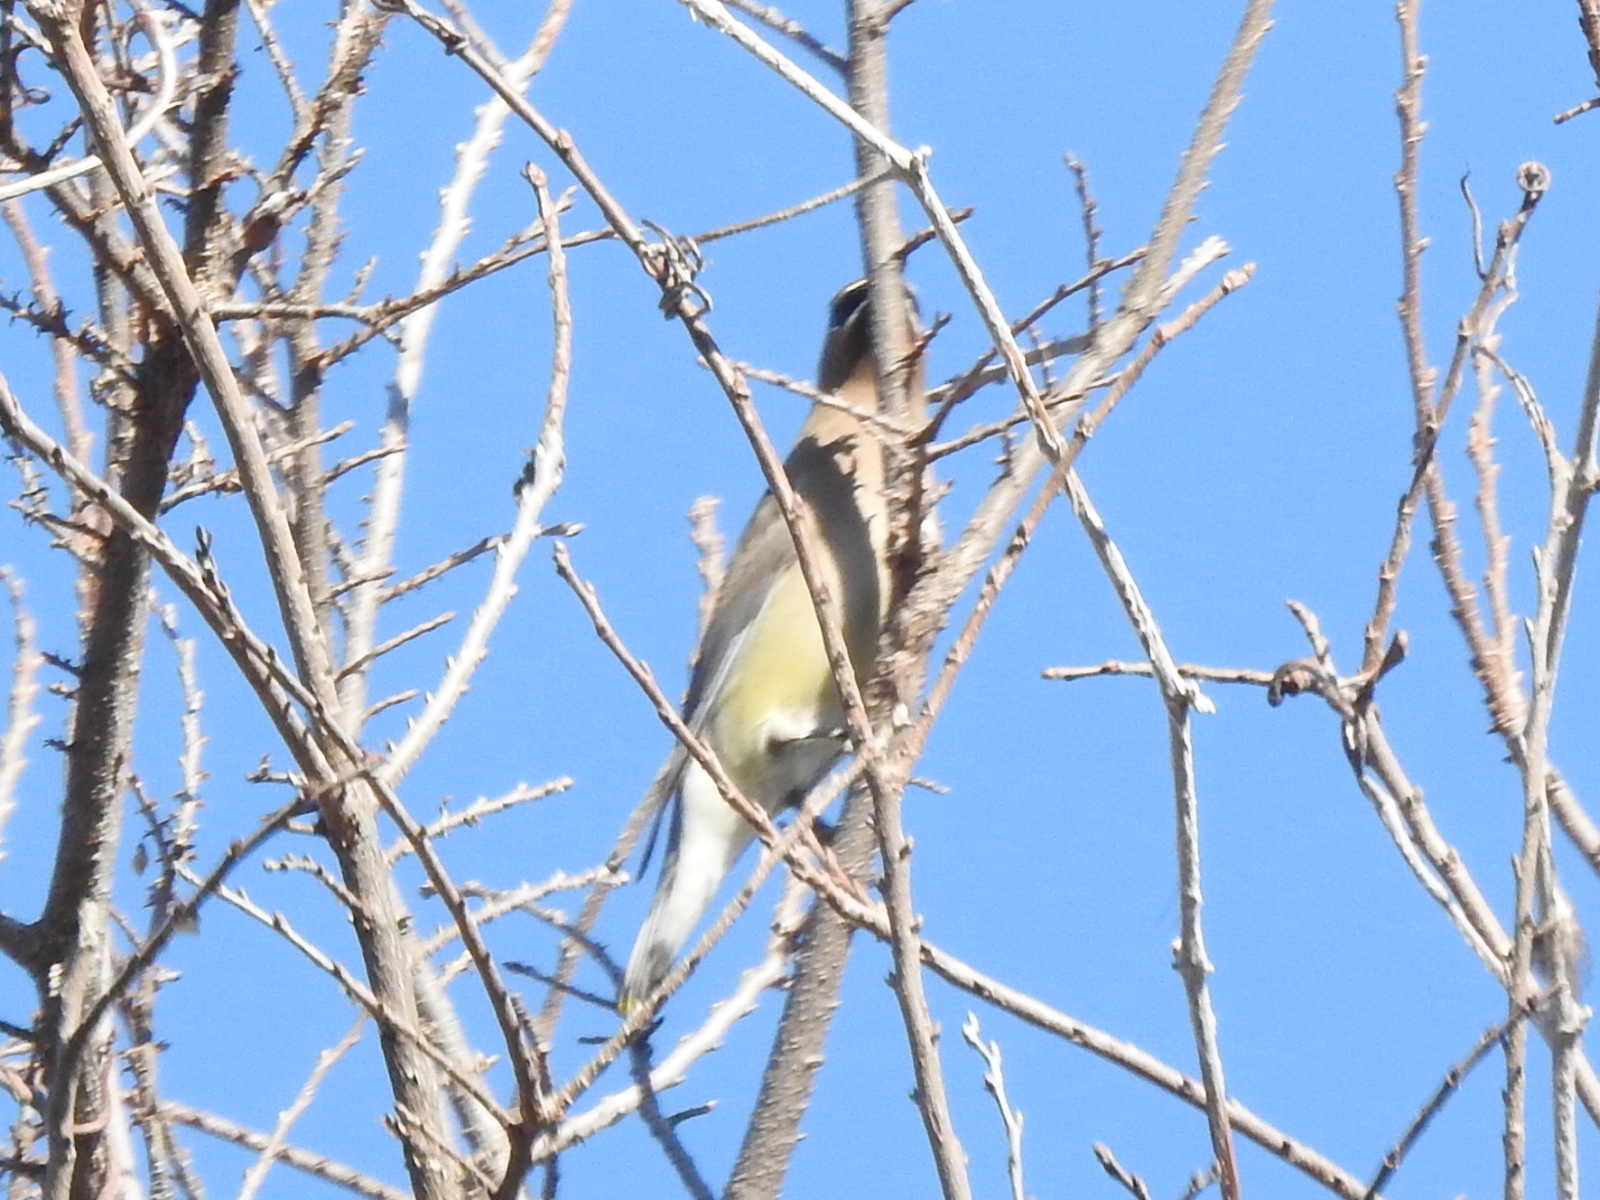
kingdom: Animalia
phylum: Chordata
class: Aves
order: Passeriformes
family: Bombycillidae
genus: Bombycilla
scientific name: Bombycilla cedrorum
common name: Cedar waxwing
